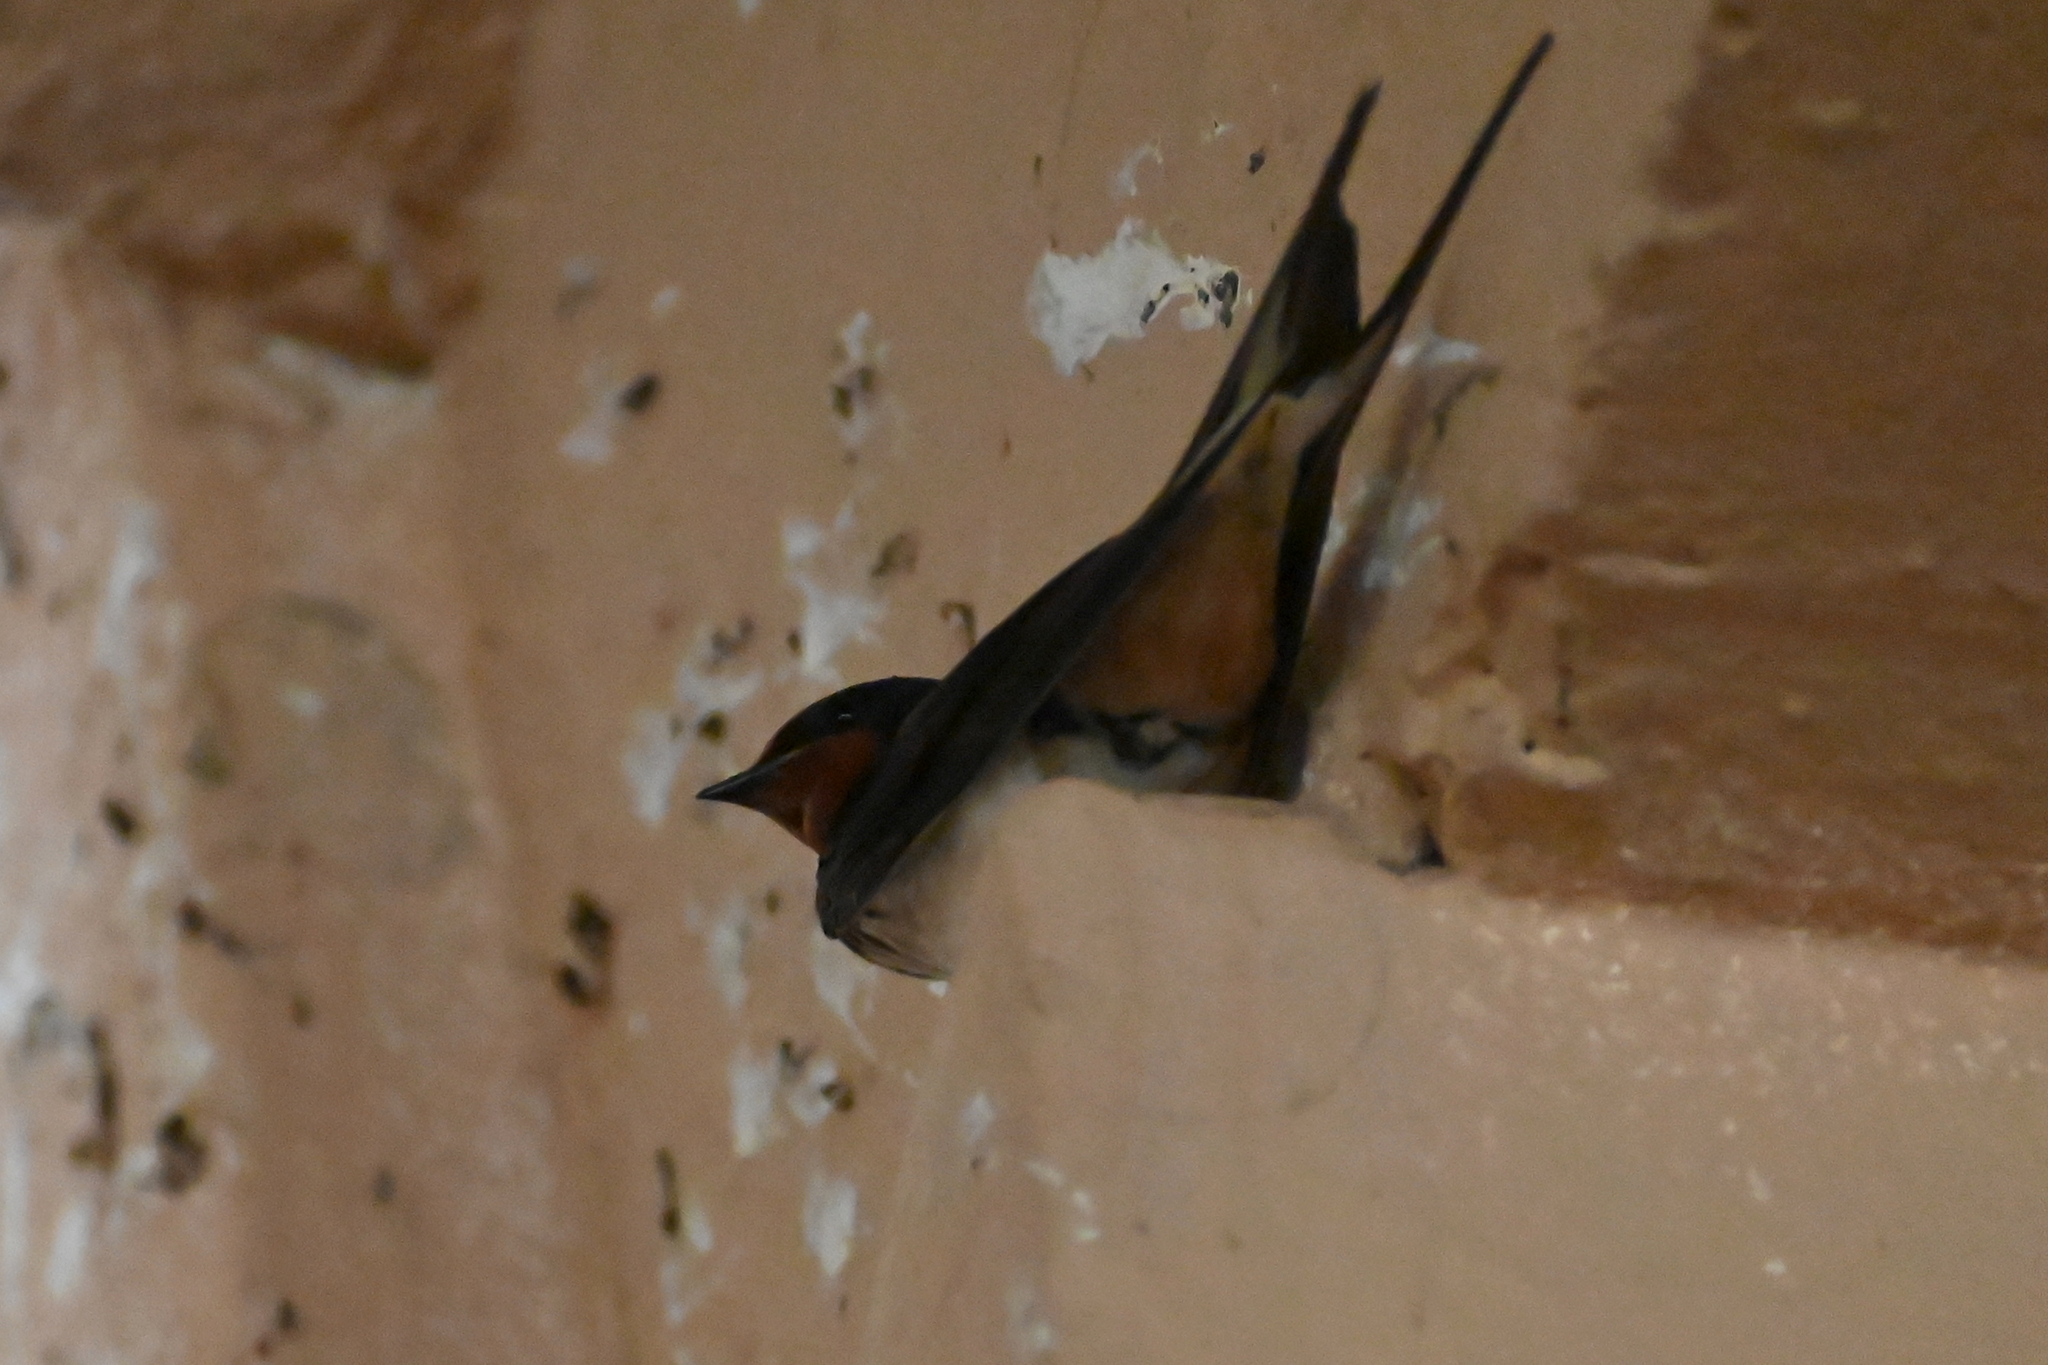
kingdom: Animalia
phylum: Chordata
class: Aves
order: Passeriformes
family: Hirundinidae
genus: Hirundo
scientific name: Hirundo rustica
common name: Barn swallow
